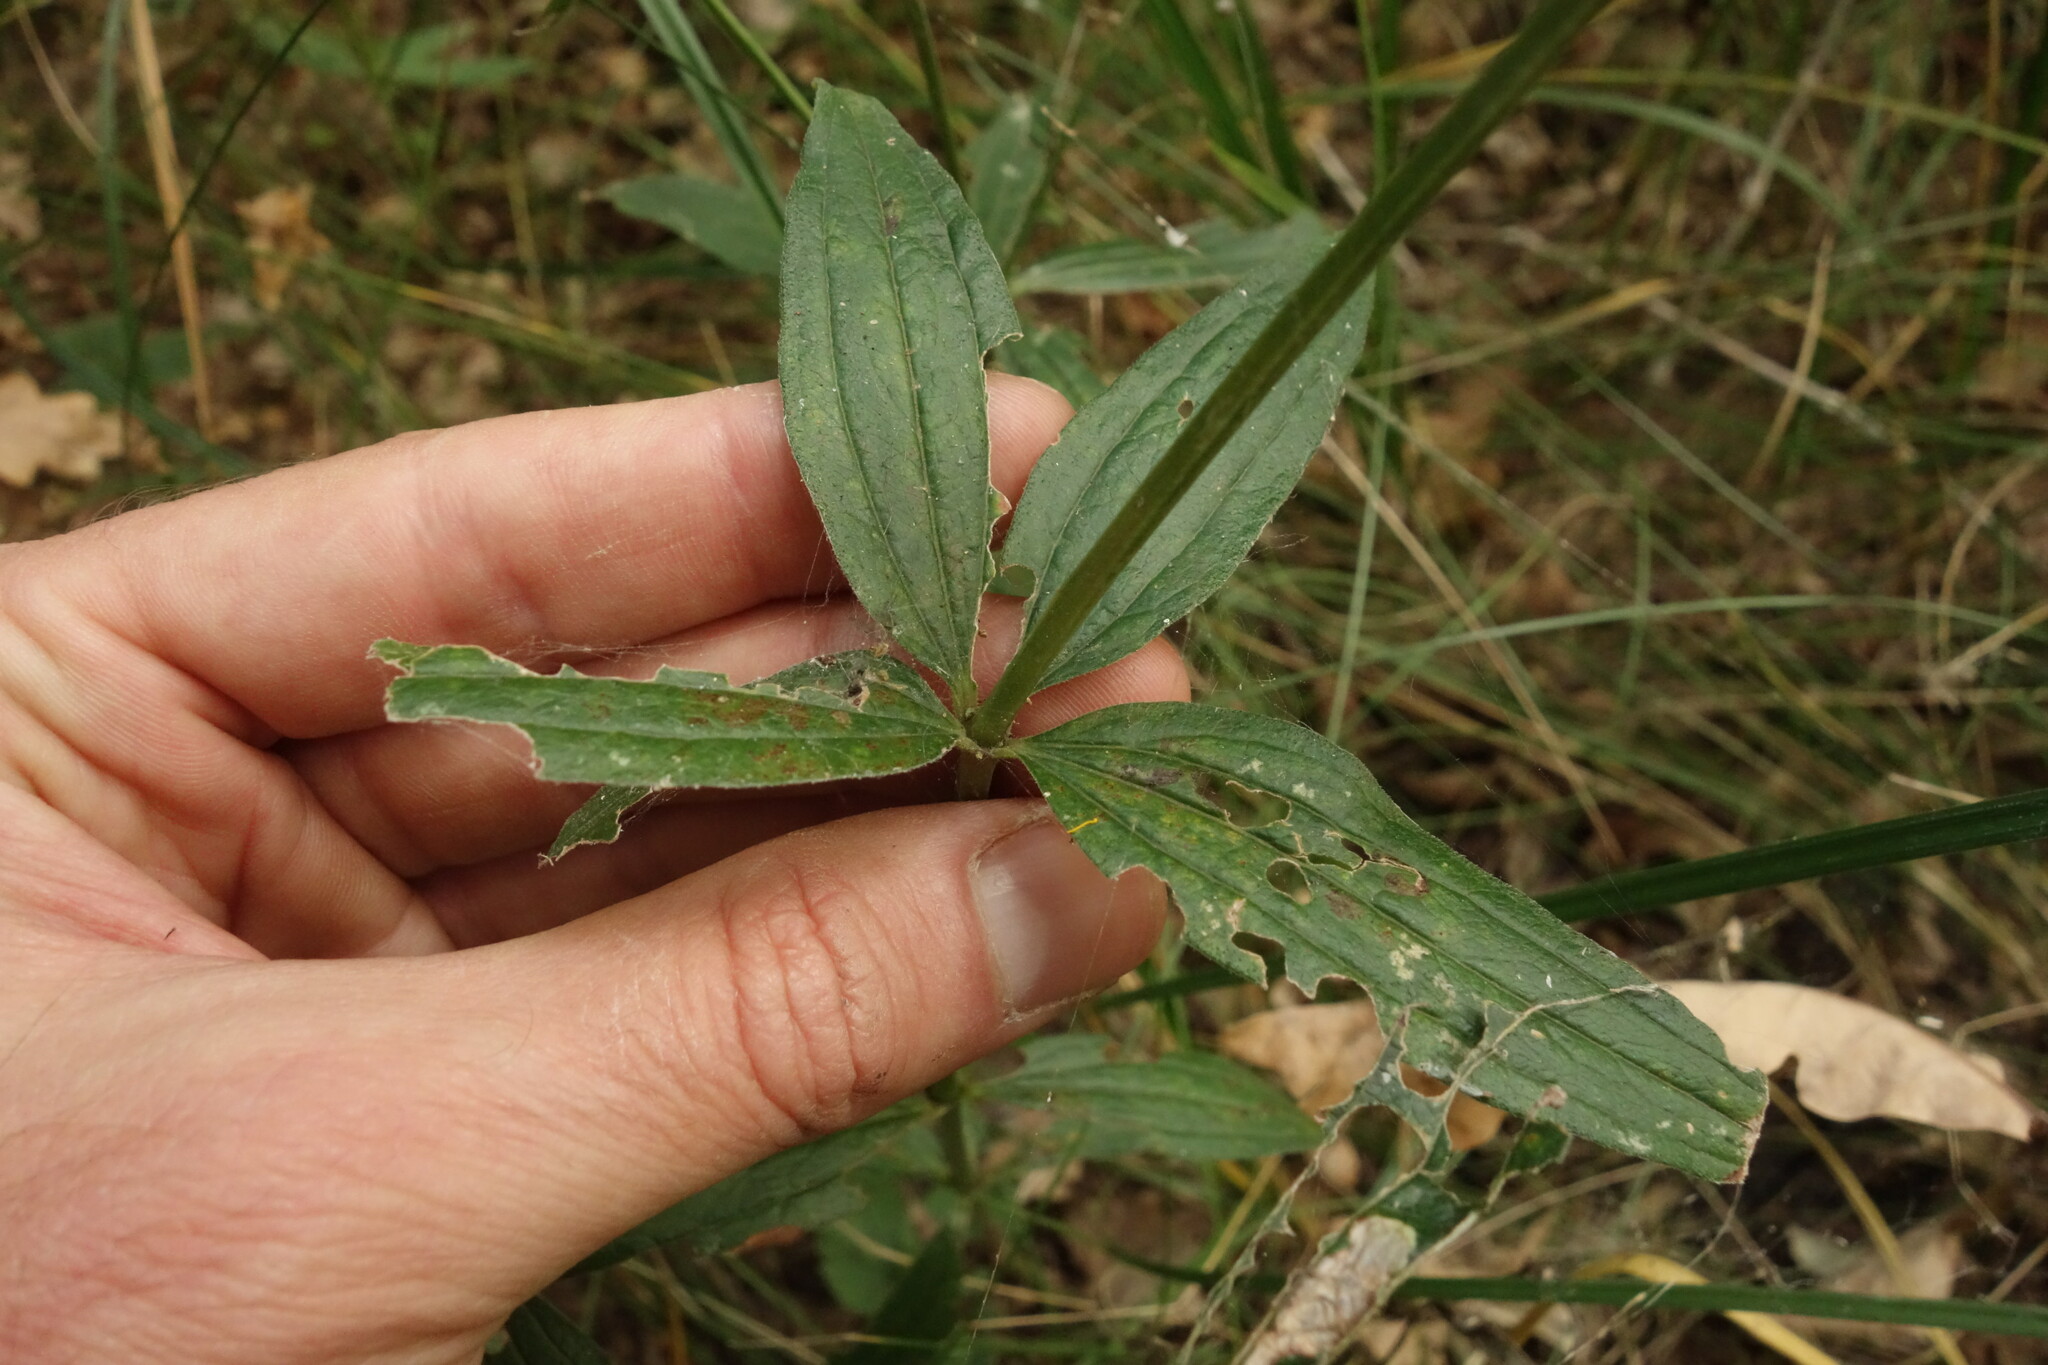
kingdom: Plantae
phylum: Tracheophyta
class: Magnoliopsida
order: Gentianales
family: Rubiaceae
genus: Galium
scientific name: Galium rubioides
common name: European bedstraw
